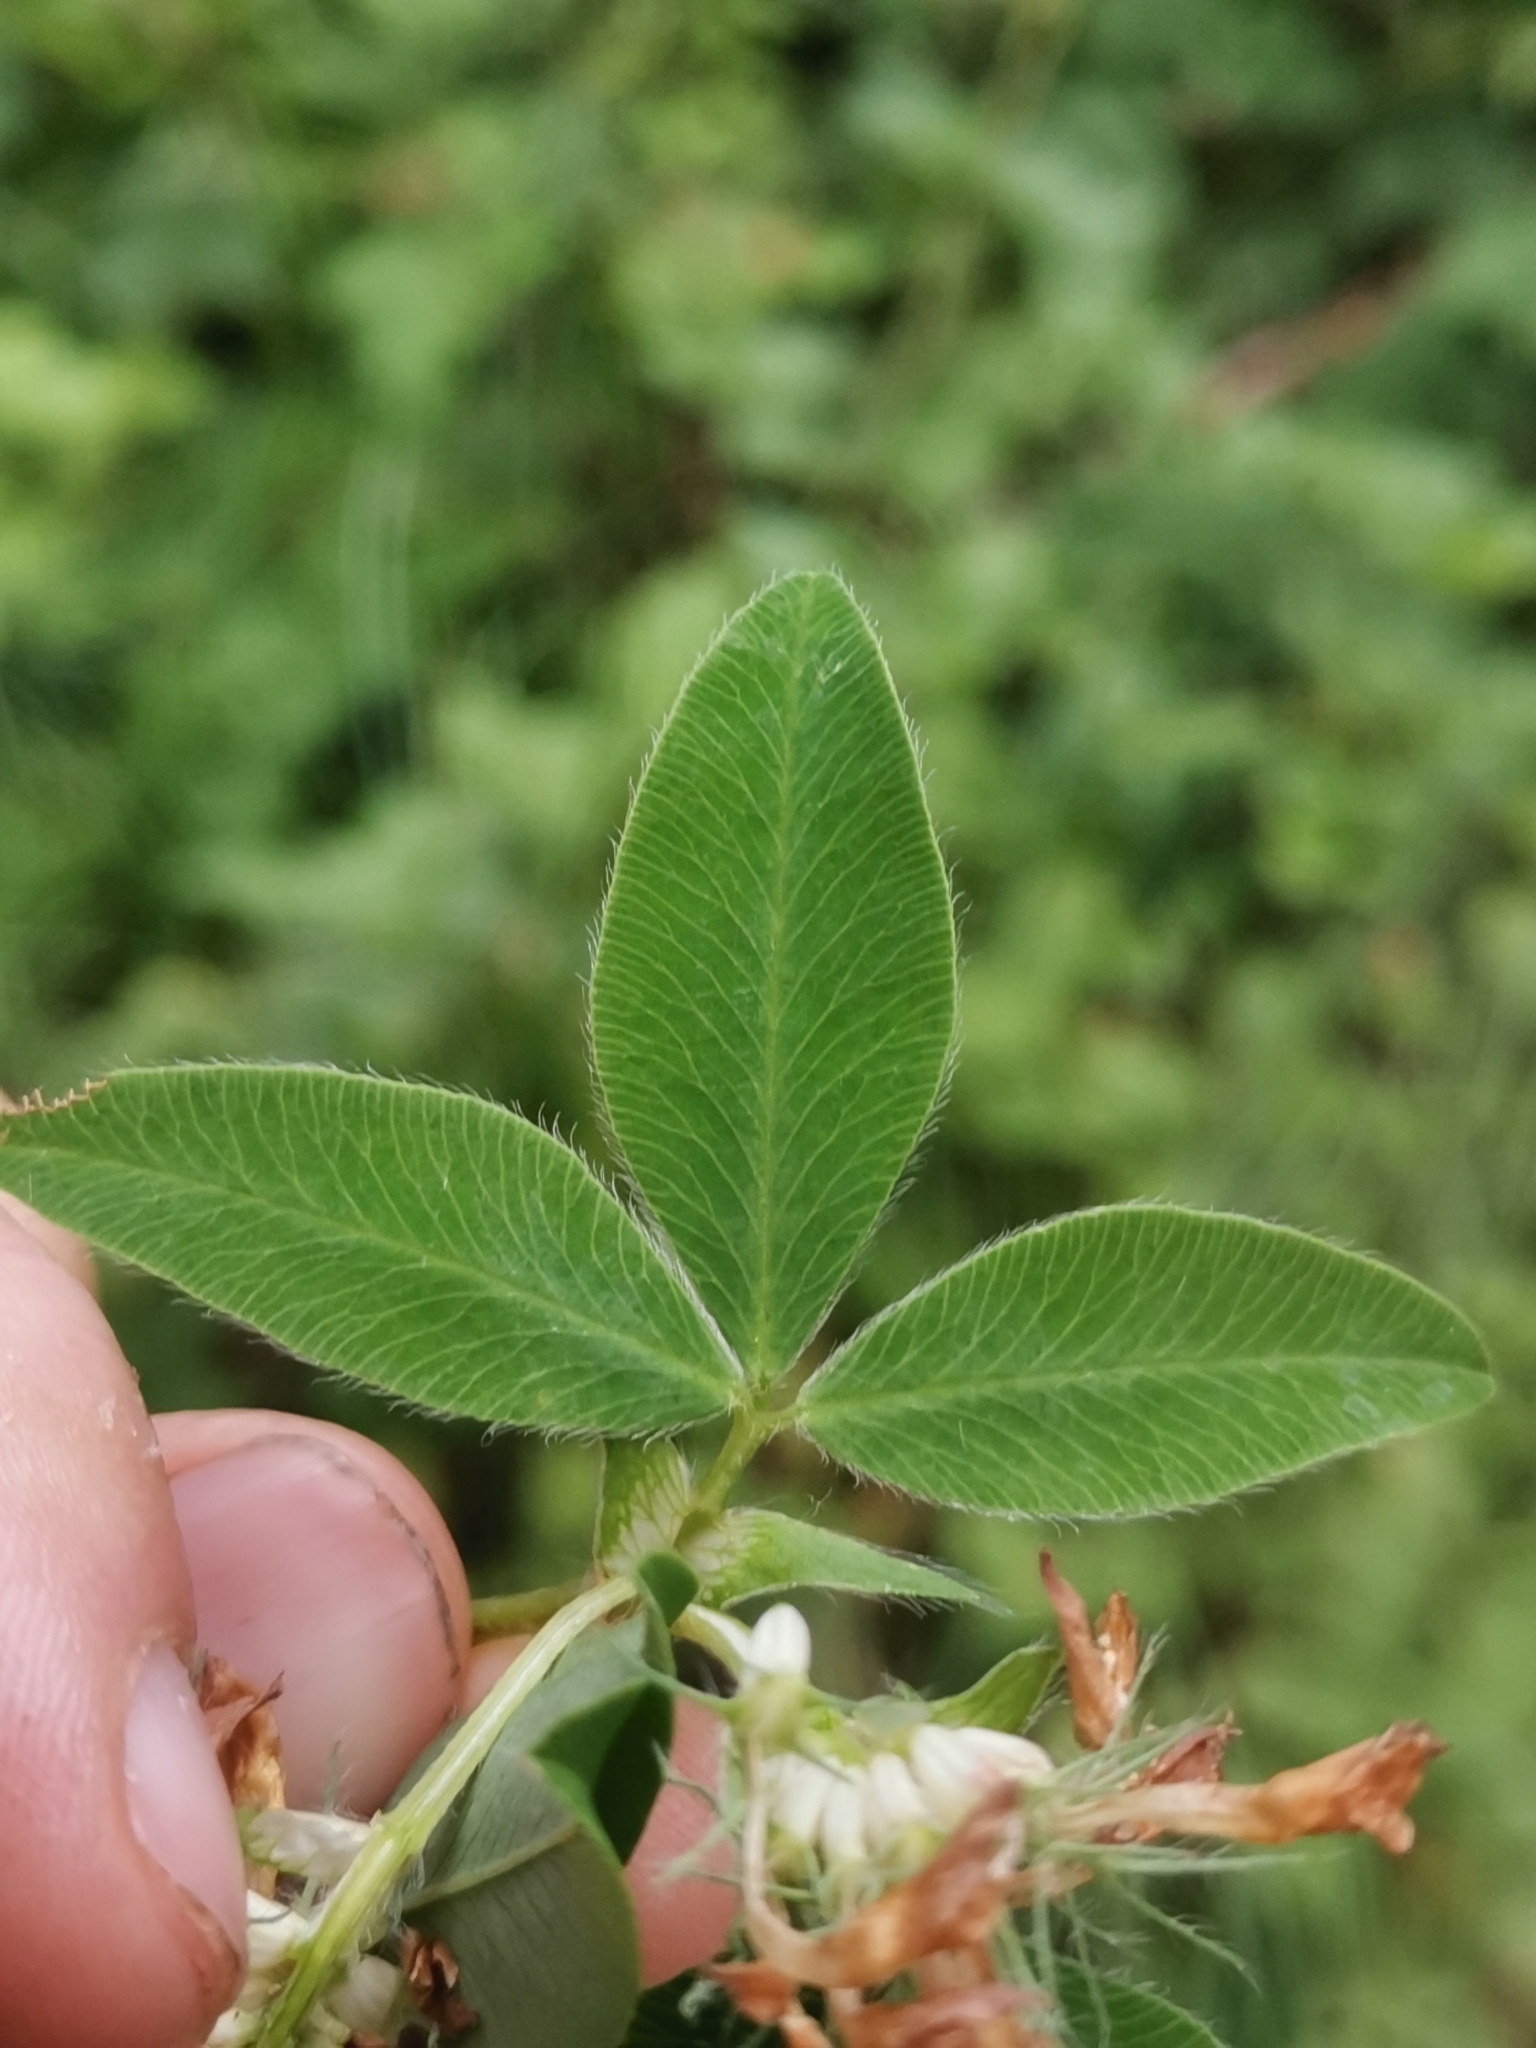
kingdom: Plantae
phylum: Tracheophyta
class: Magnoliopsida
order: Fabales
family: Fabaceae
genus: Trifolium
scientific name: Trifolium medium
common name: Zigzag clover
